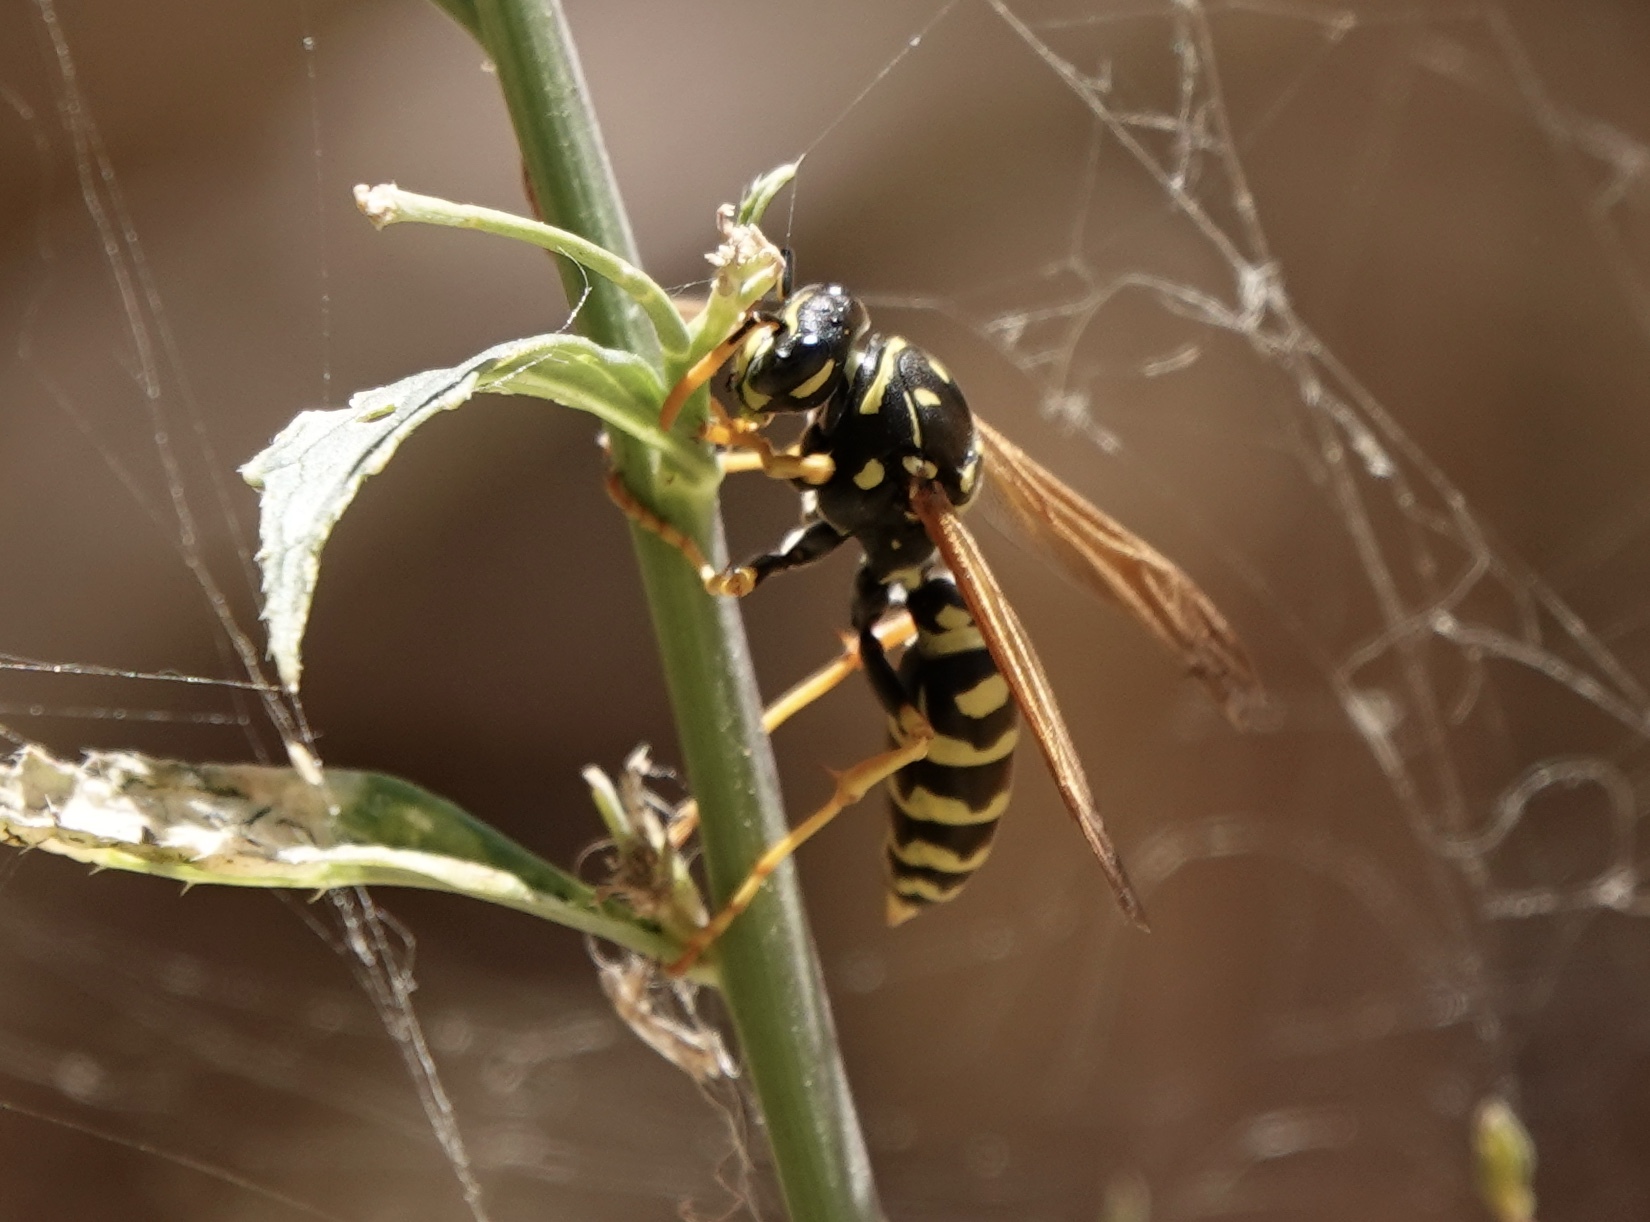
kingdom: Animalia
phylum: Arthropoda
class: Insecta
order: Hymenoptera
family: Eumenidae
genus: Polistes
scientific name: Polistes dominula
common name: Paper wasp
